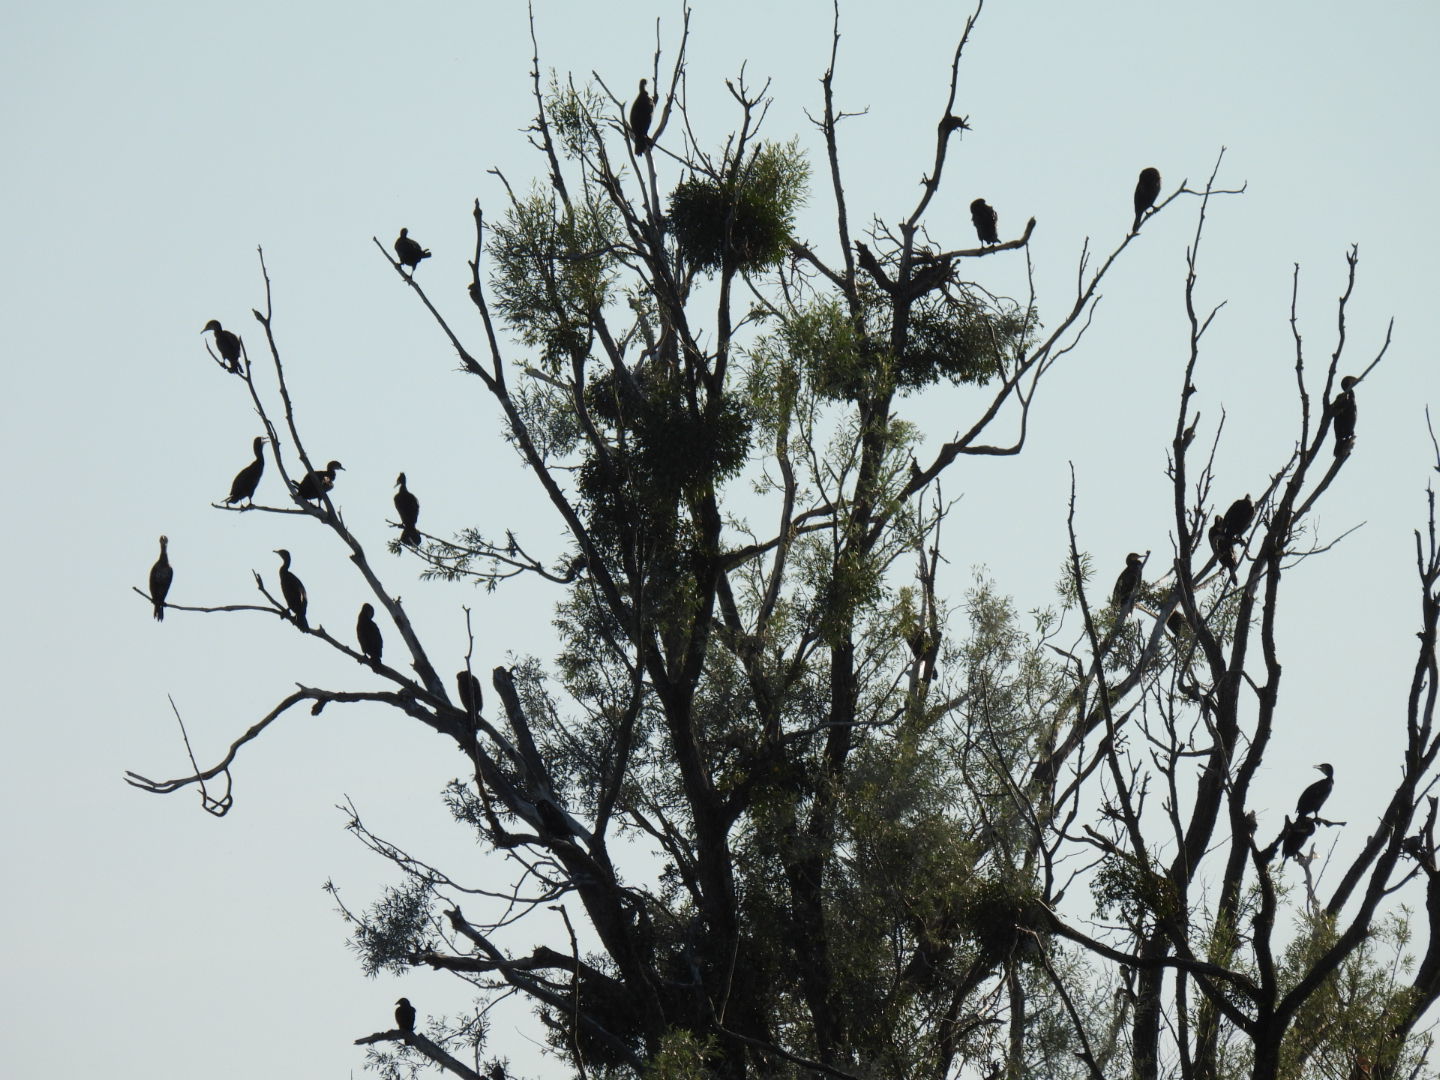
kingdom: Animalia
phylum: Chordata
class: Aves
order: Suliformes
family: Phalacrocoracidae
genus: Phalacrocorax
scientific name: Phalacrocorax carbo
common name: Great cormorant
